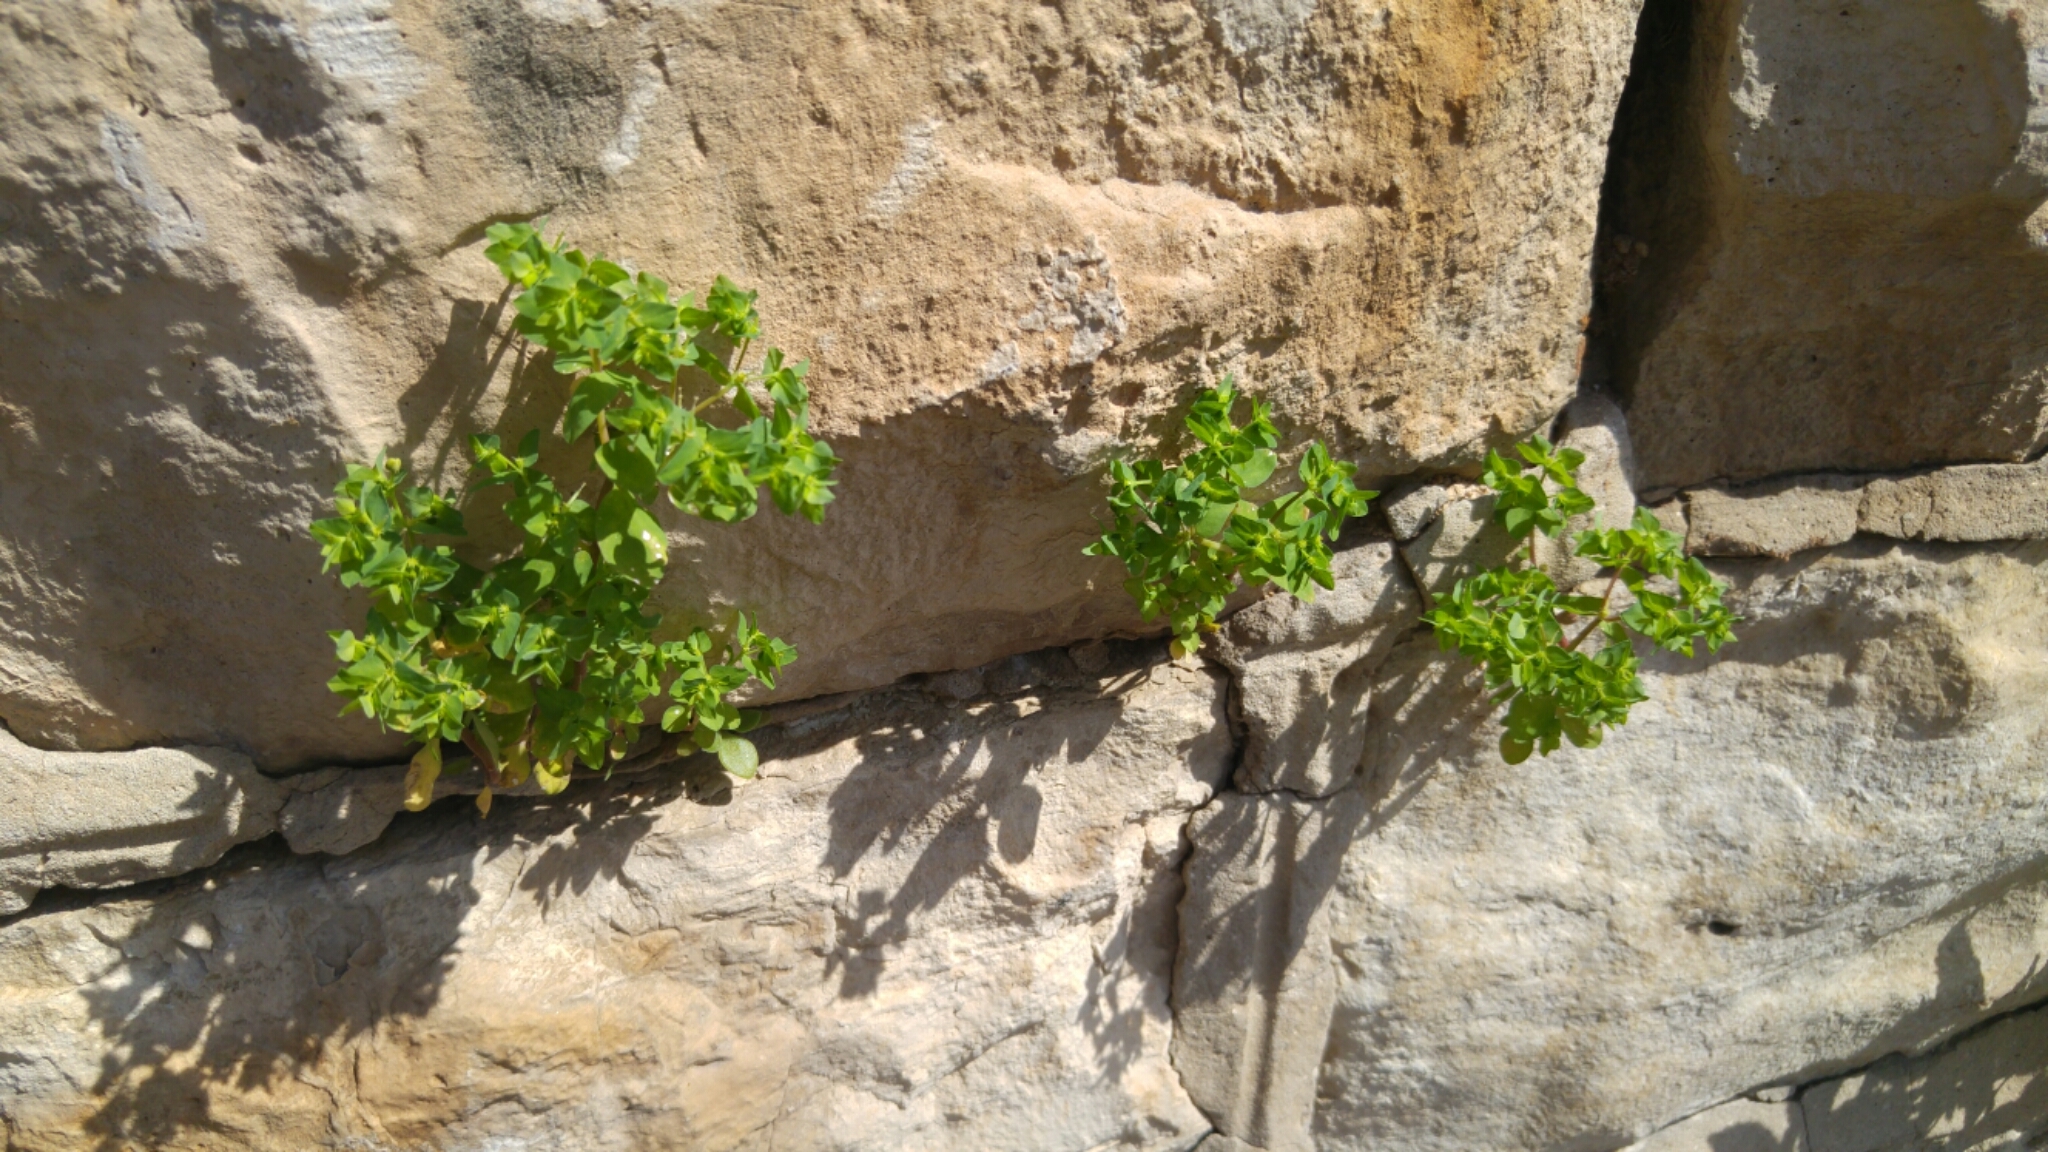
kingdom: Plantae
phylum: Tracheophyta
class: Magnoliopsida
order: Malpighiales
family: Euphorbiaceae
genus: Euphorbia
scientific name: Euphorbia peplus
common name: Petty spurge
